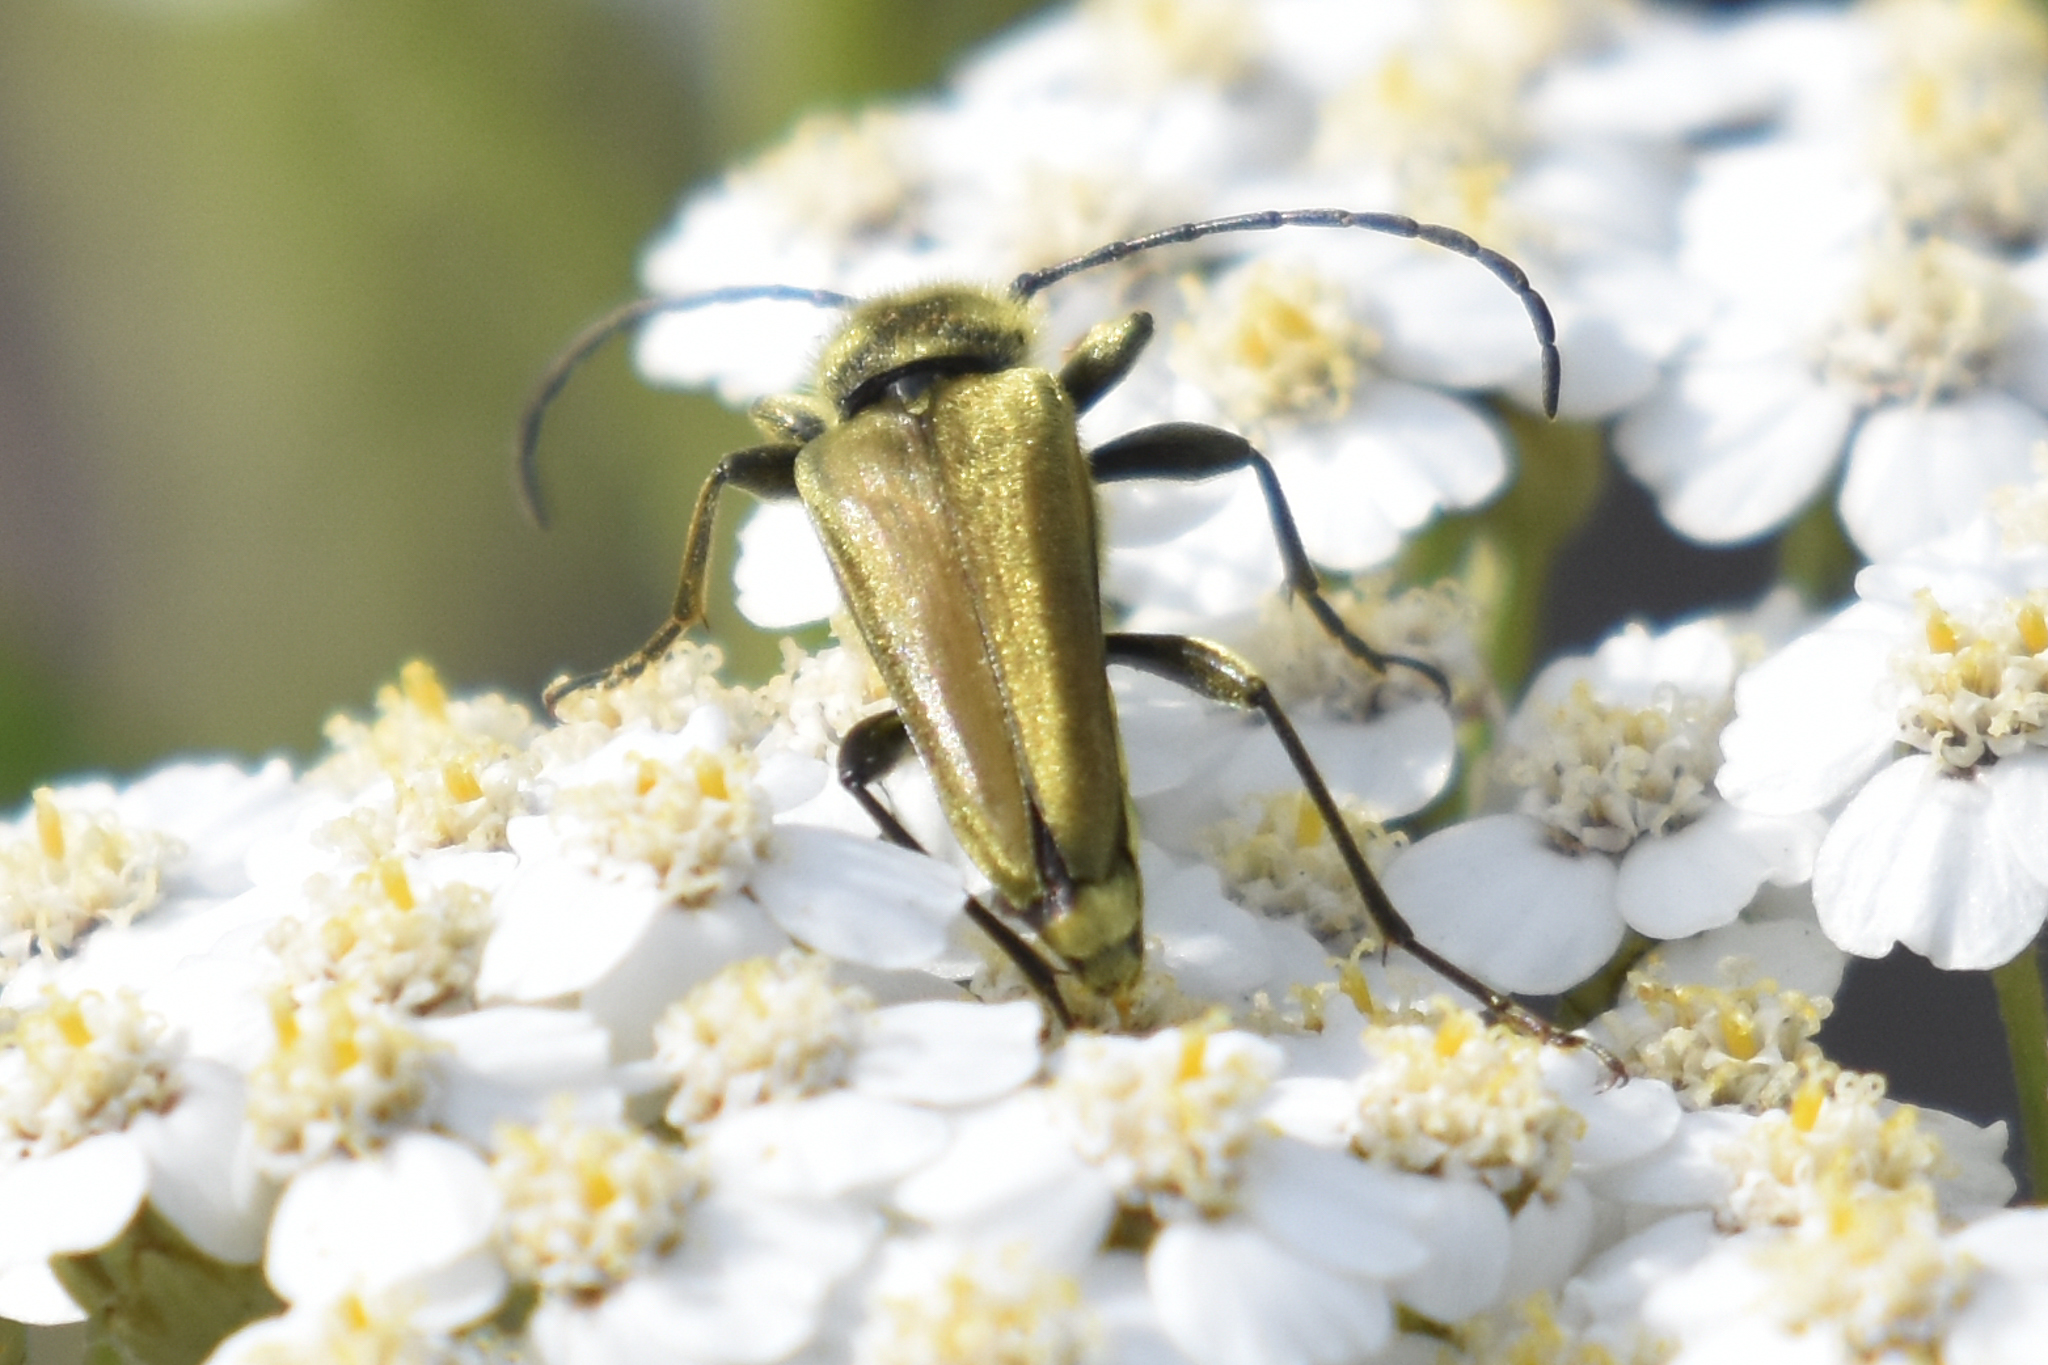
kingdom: Animalia
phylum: Arthropoda
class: Insecta
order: Coleoptera
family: Cerambycidae
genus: Cosmosalia
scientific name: Cosmosalia chrysocoma
